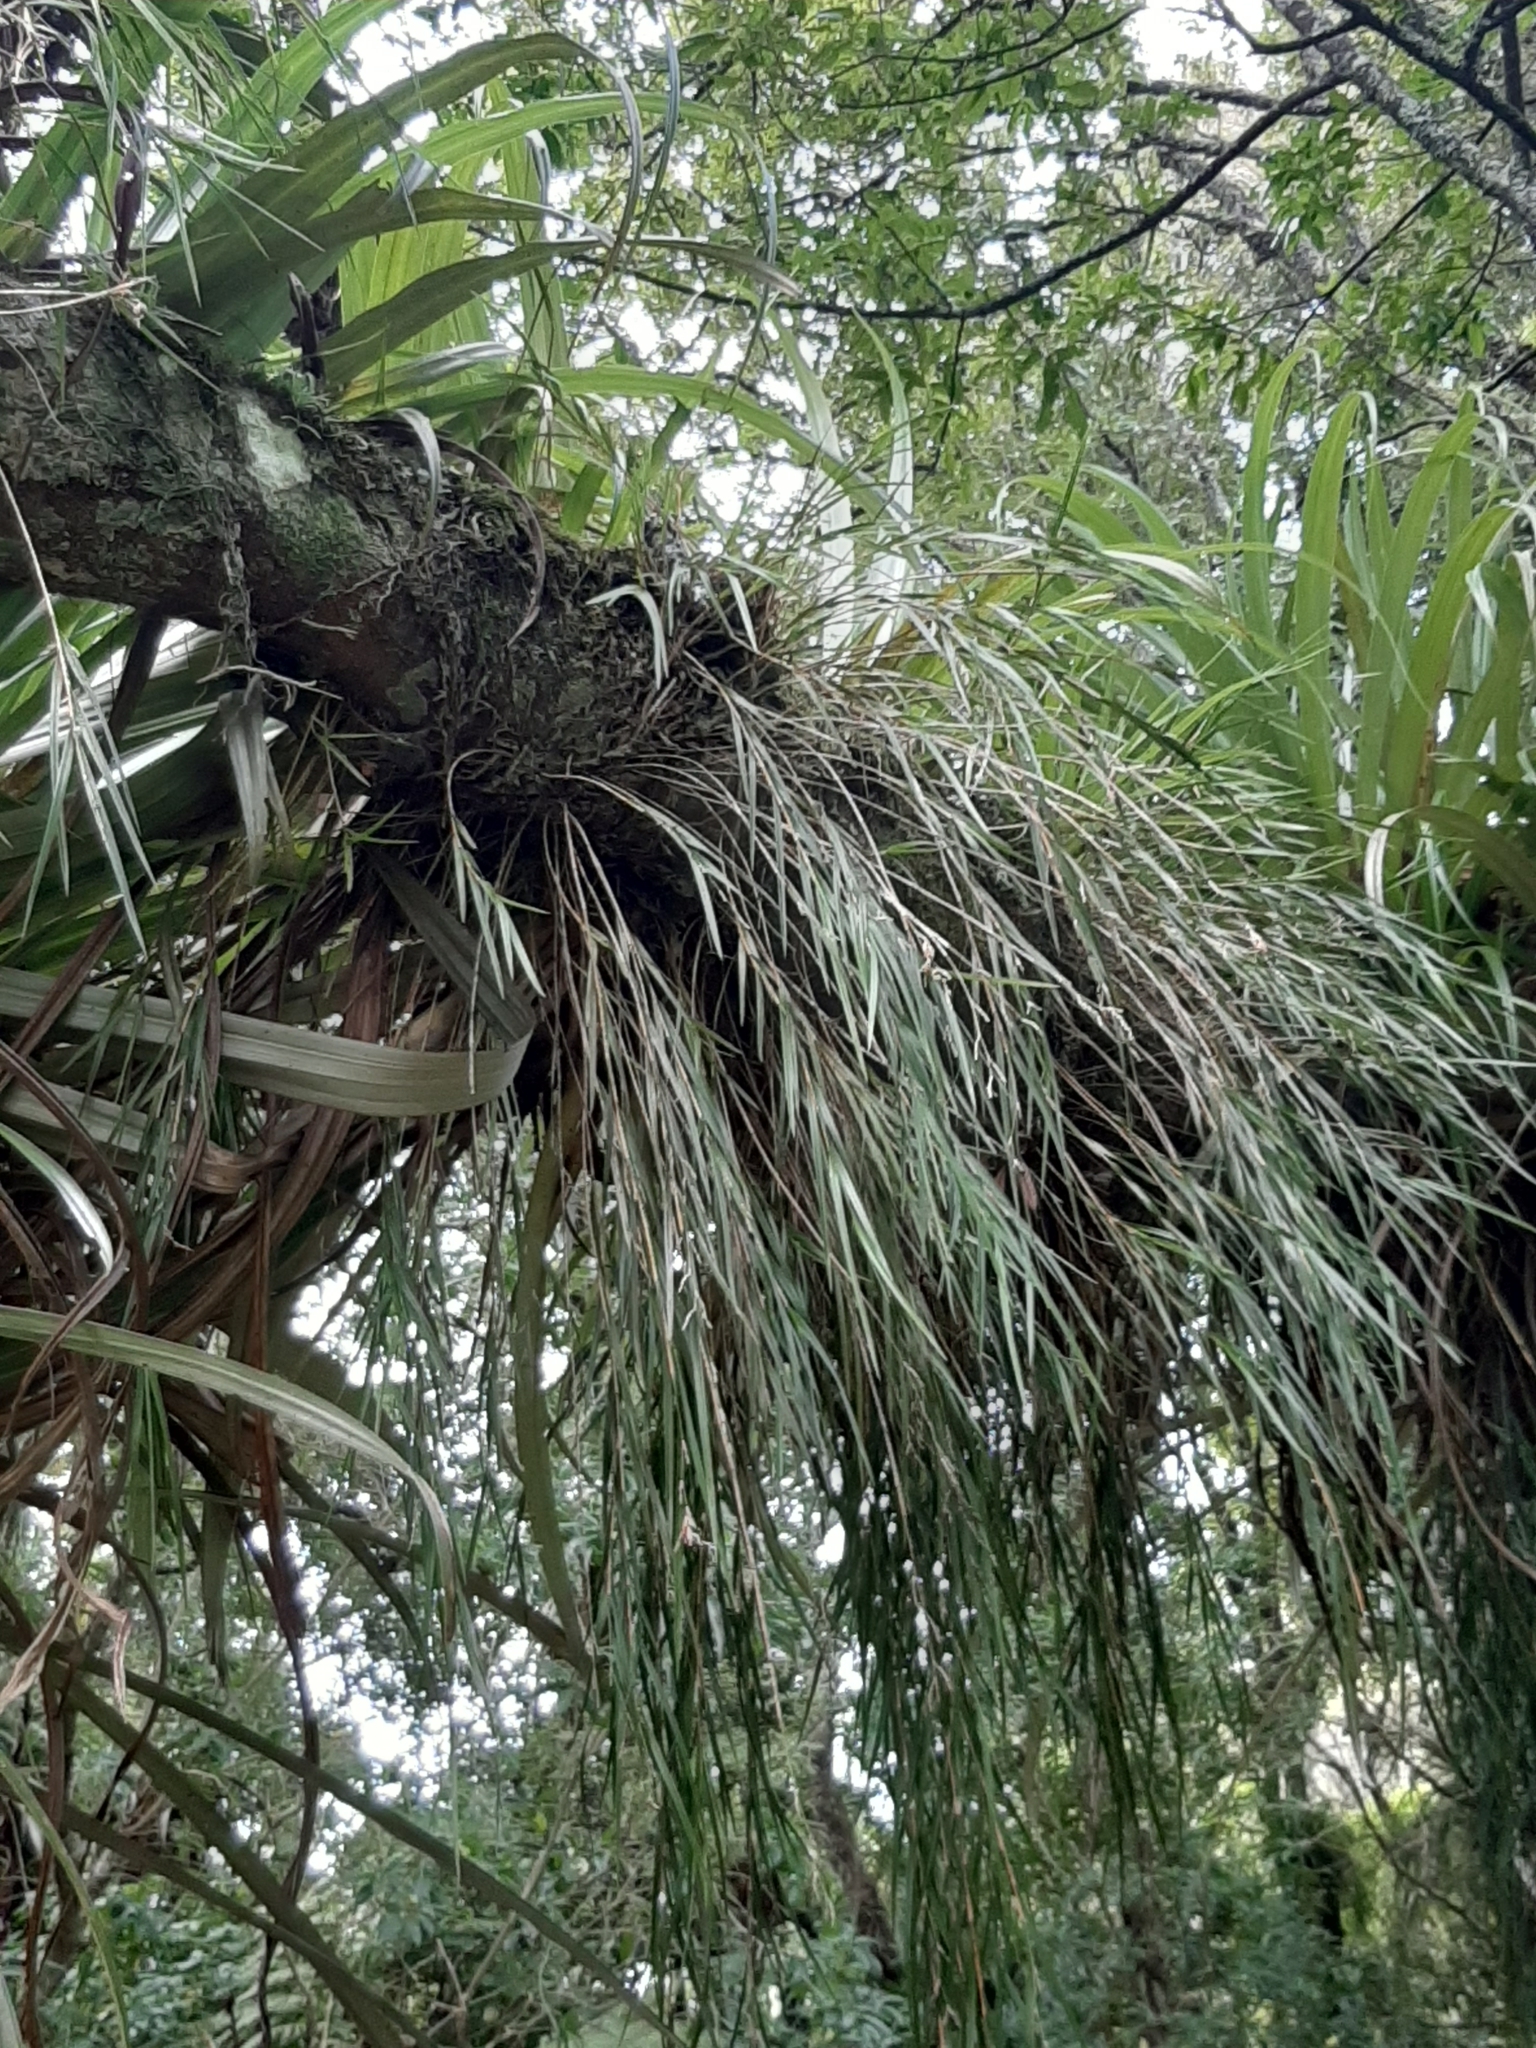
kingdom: Plantae
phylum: Tracheophyta
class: Liliopsida
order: Asparagales
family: Orchidaceae
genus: Earina
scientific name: Earina mucronata
